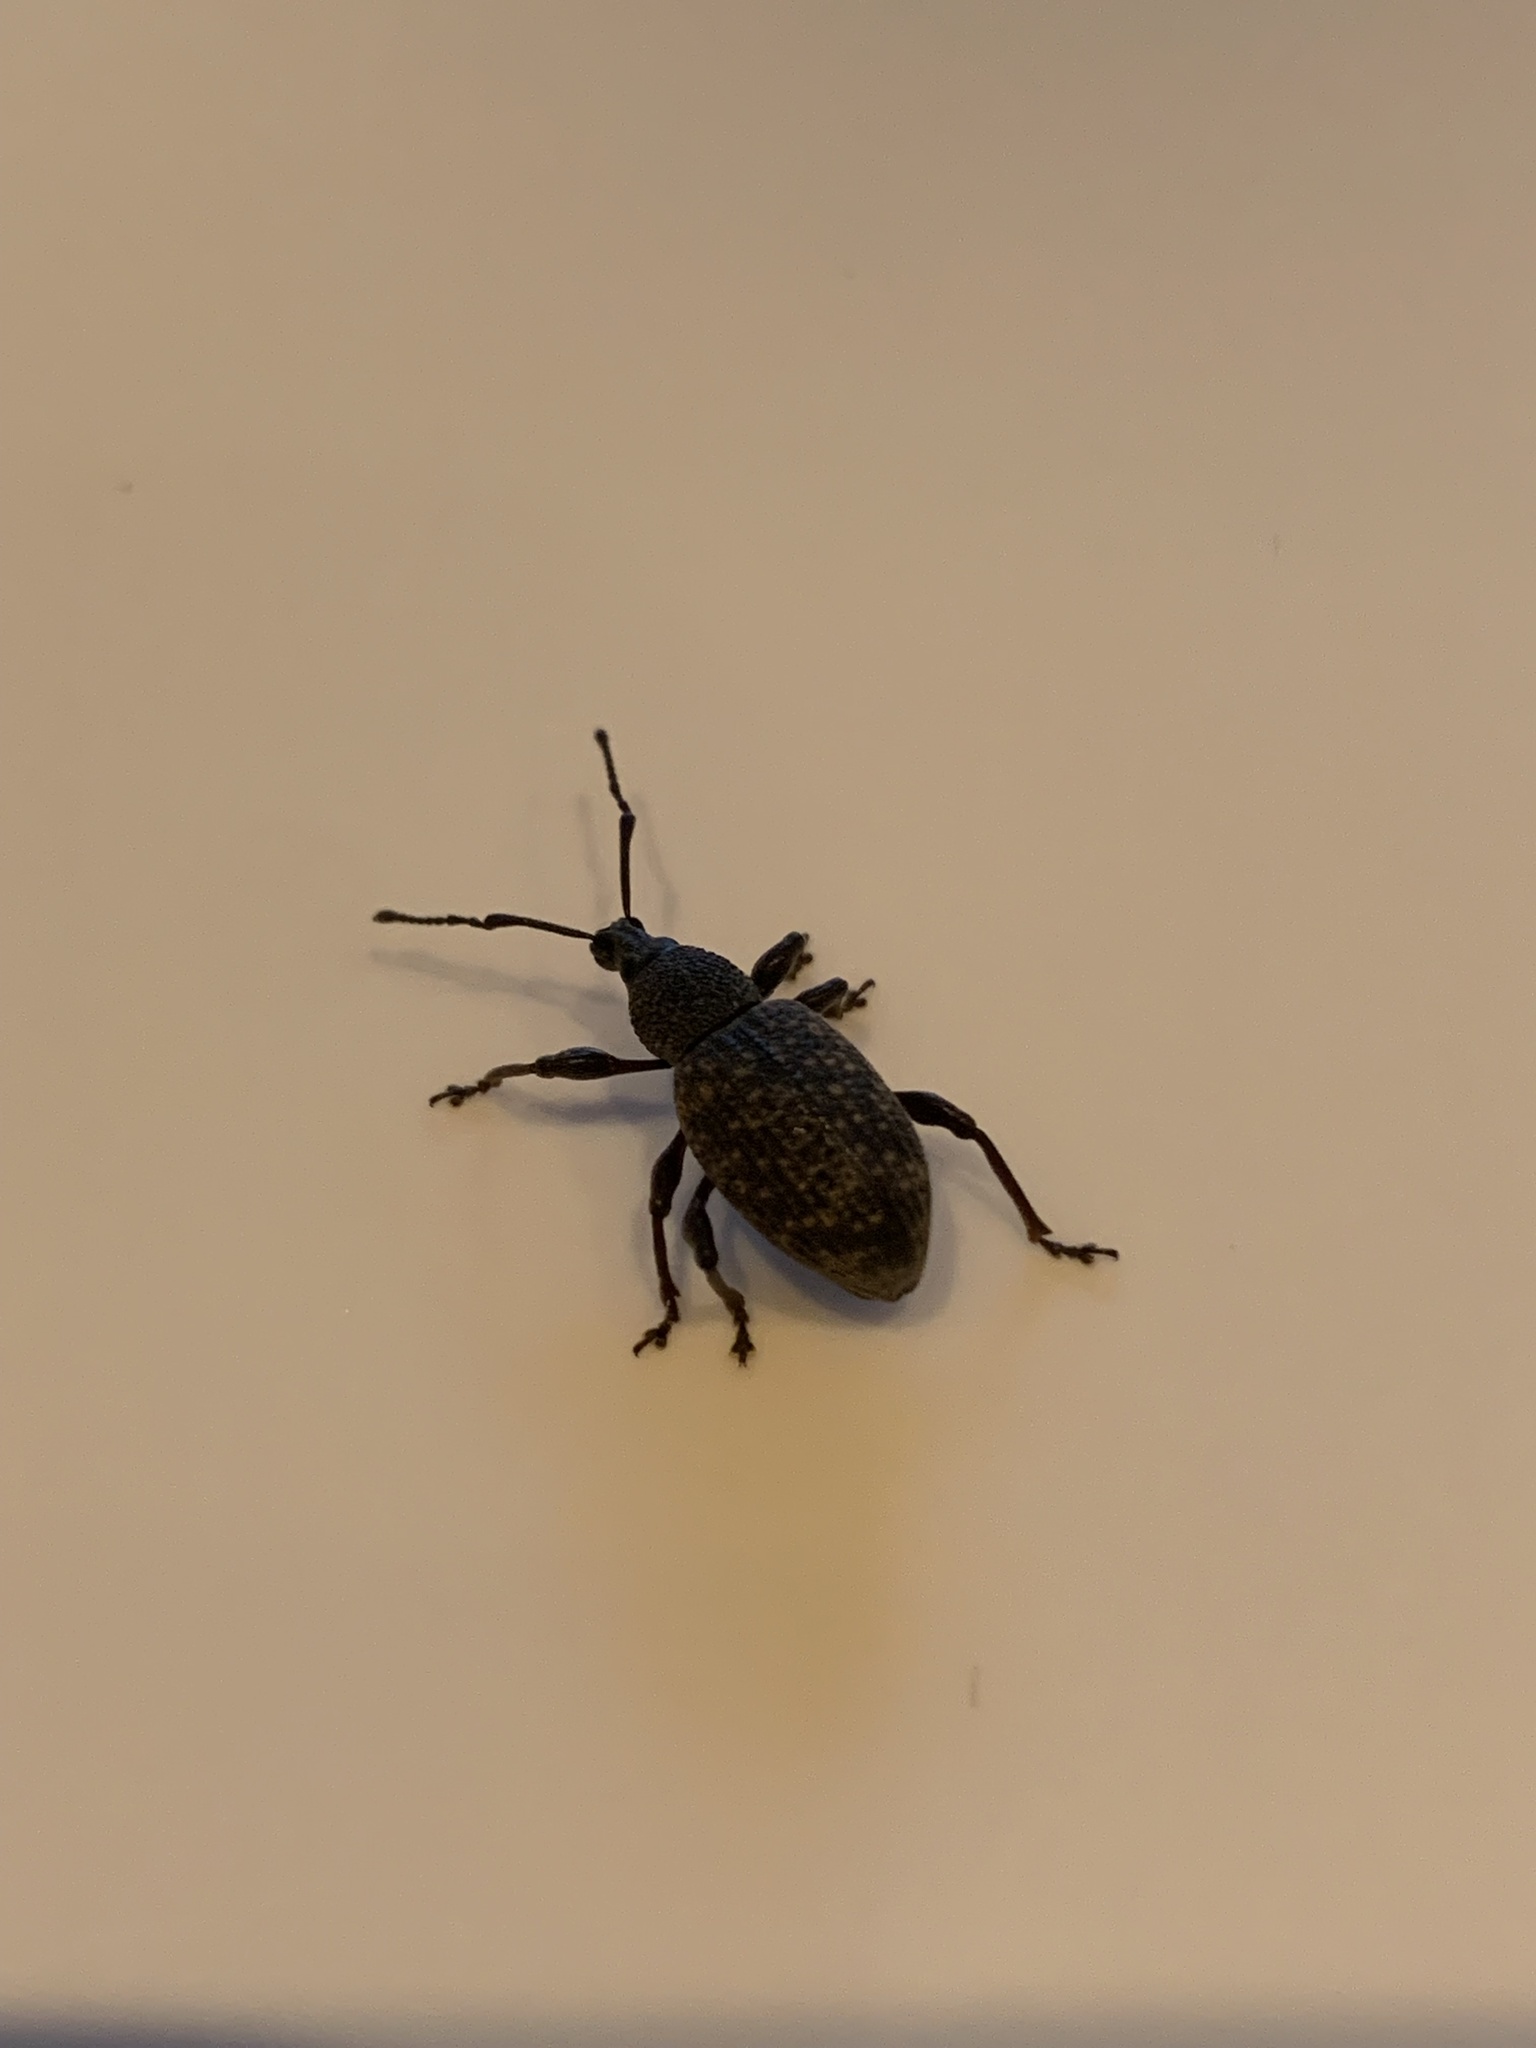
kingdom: Animalia
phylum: Arthropoda
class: Insecta
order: Coleoptera
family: Curculionidae
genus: Otiorhynchus
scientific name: Otiorhynchus sulcatus
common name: Black vine weevil
